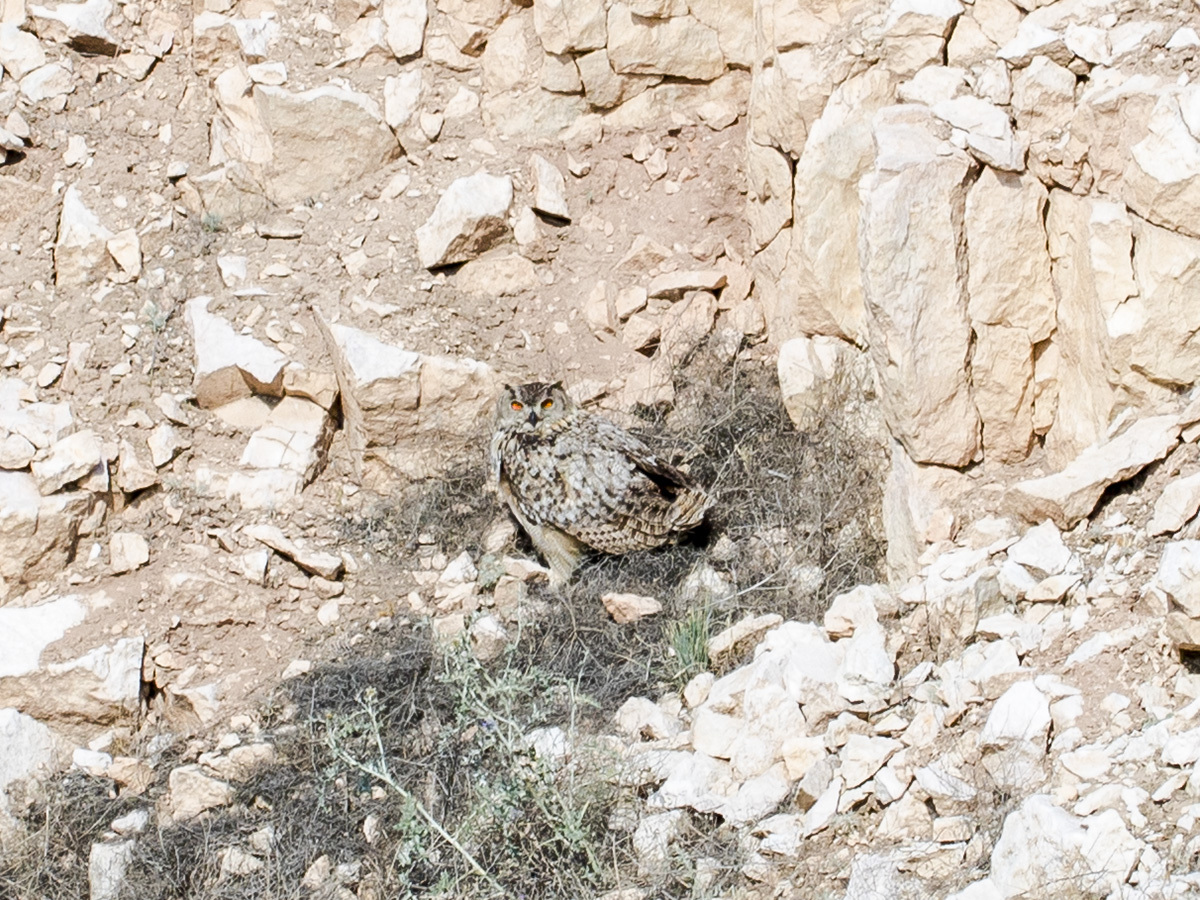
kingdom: Animalia
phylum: Chordata
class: Aves
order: Strigiformes
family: Strigidae
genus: Bubo
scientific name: Bubo bubo
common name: Eurasian eagle-owl
